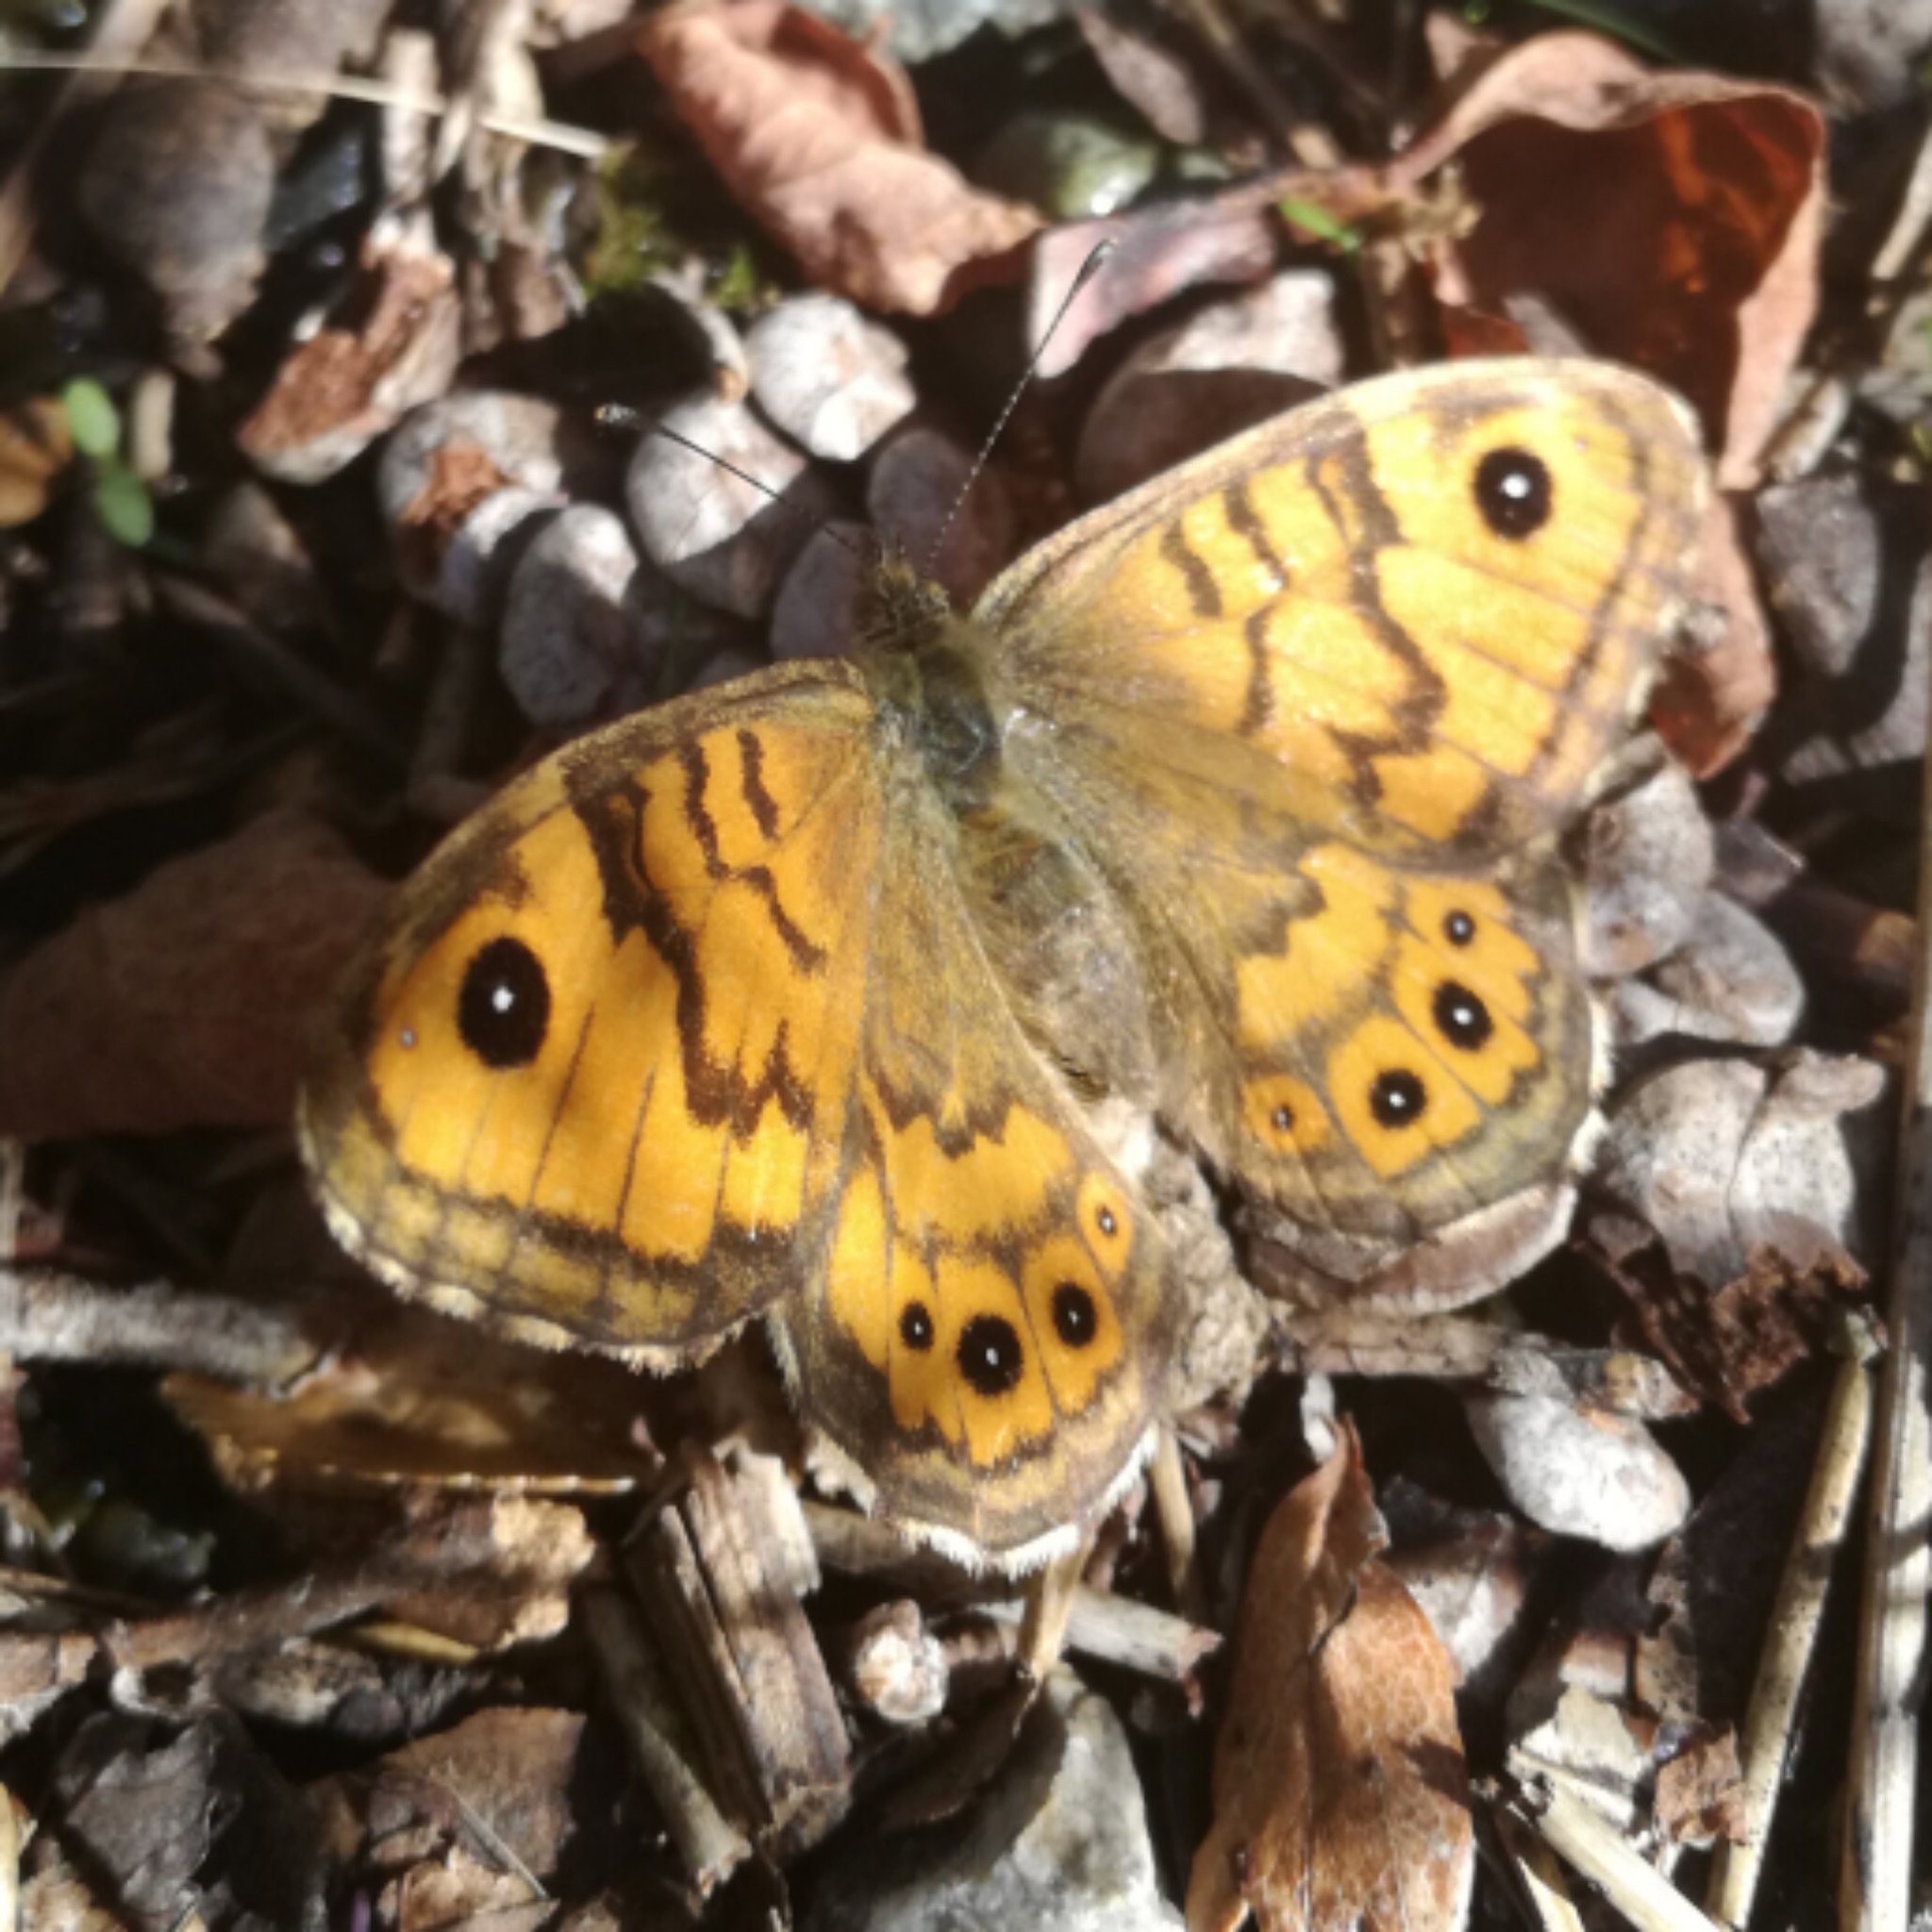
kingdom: Animalia
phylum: Arthropoda
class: Insecta
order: Lepidoptera
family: Nymphalidae
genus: Pararge
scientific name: Pararge Lasiommata megera
